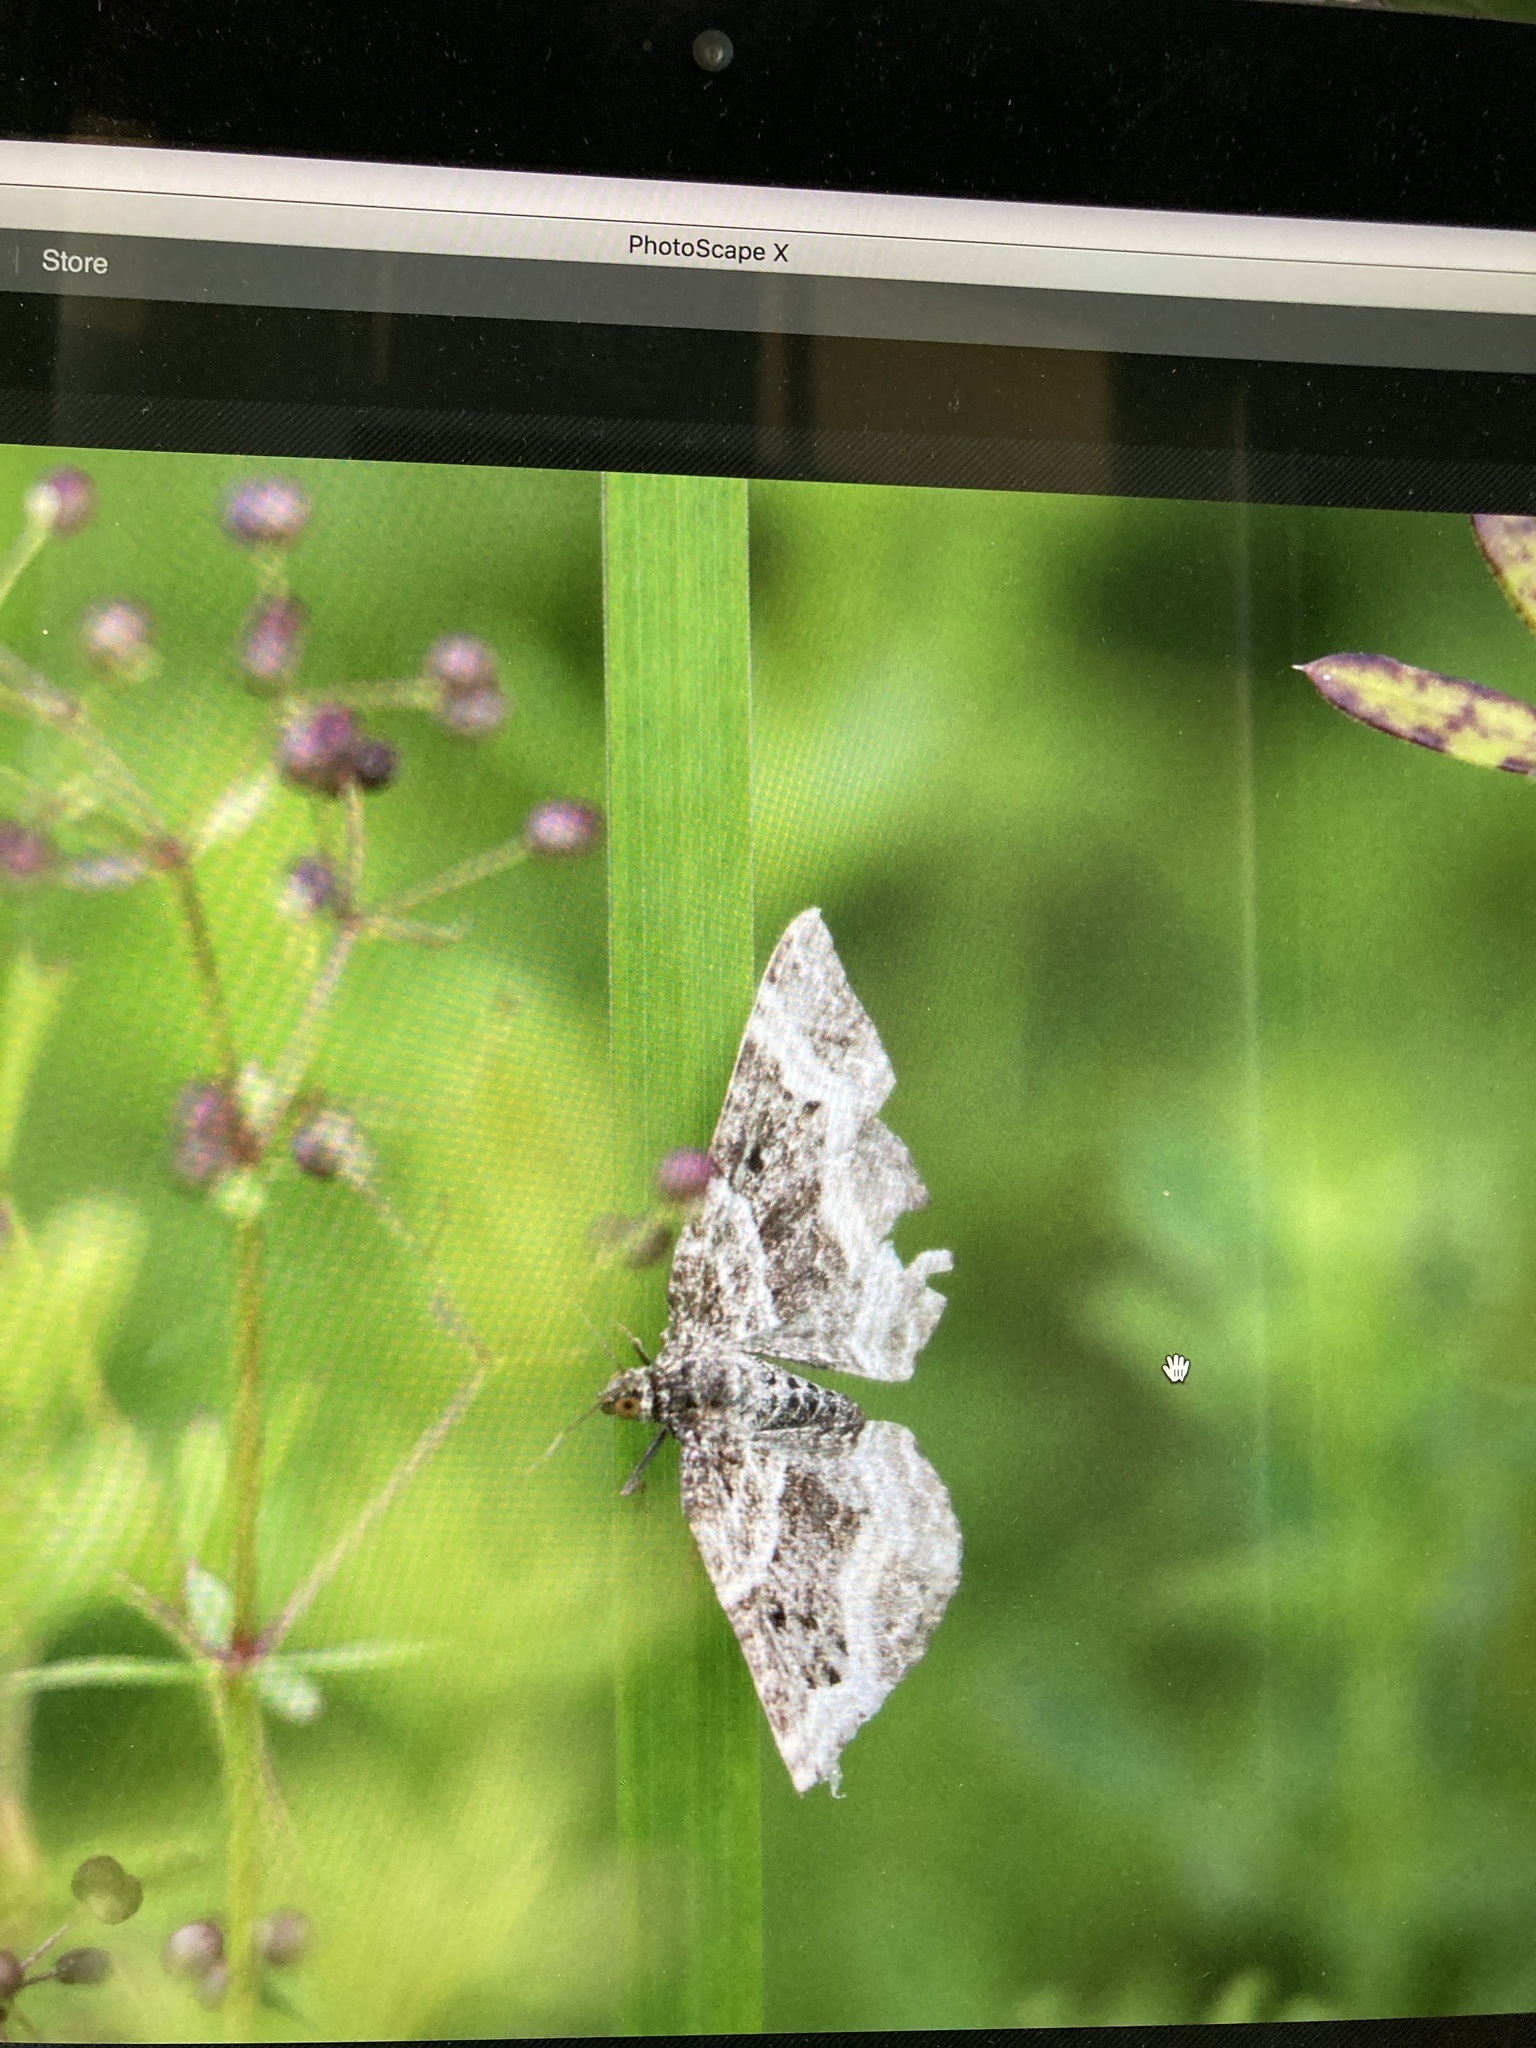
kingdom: Animalia
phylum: Arthropoda
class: Insecta
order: Lepidoptera
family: Geometridae
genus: Epirrhoe
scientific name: Epirrhoe alternata
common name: Common carpet
